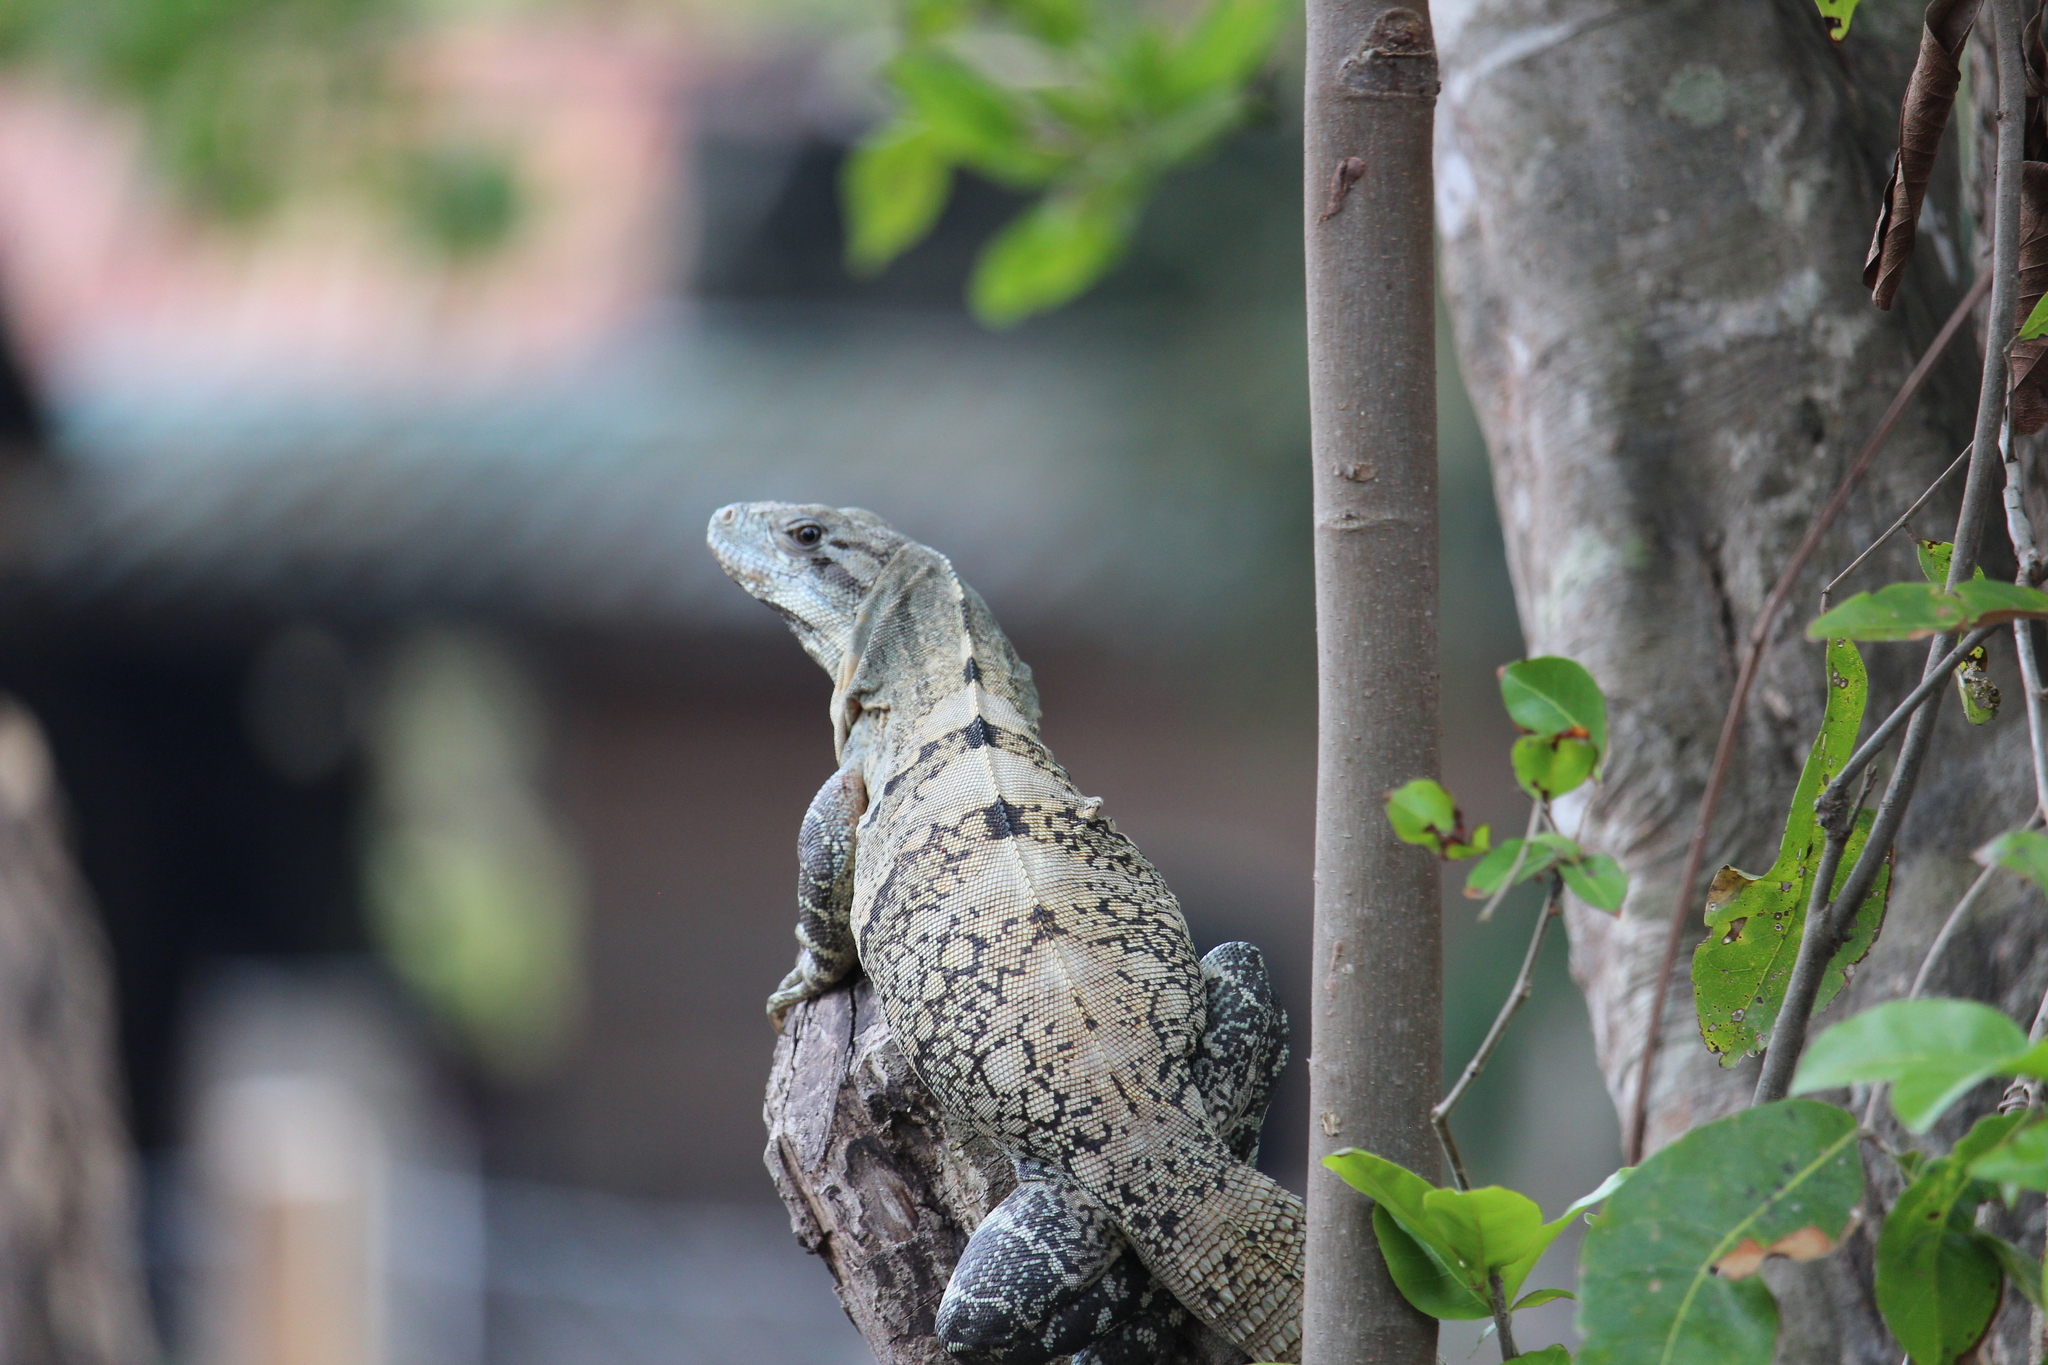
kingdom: Animalia
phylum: Chordata
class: Squamata
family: Iguanidae
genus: Ctenosaura
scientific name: Ctenosaura similis
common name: Black spiny-tailed iguana
